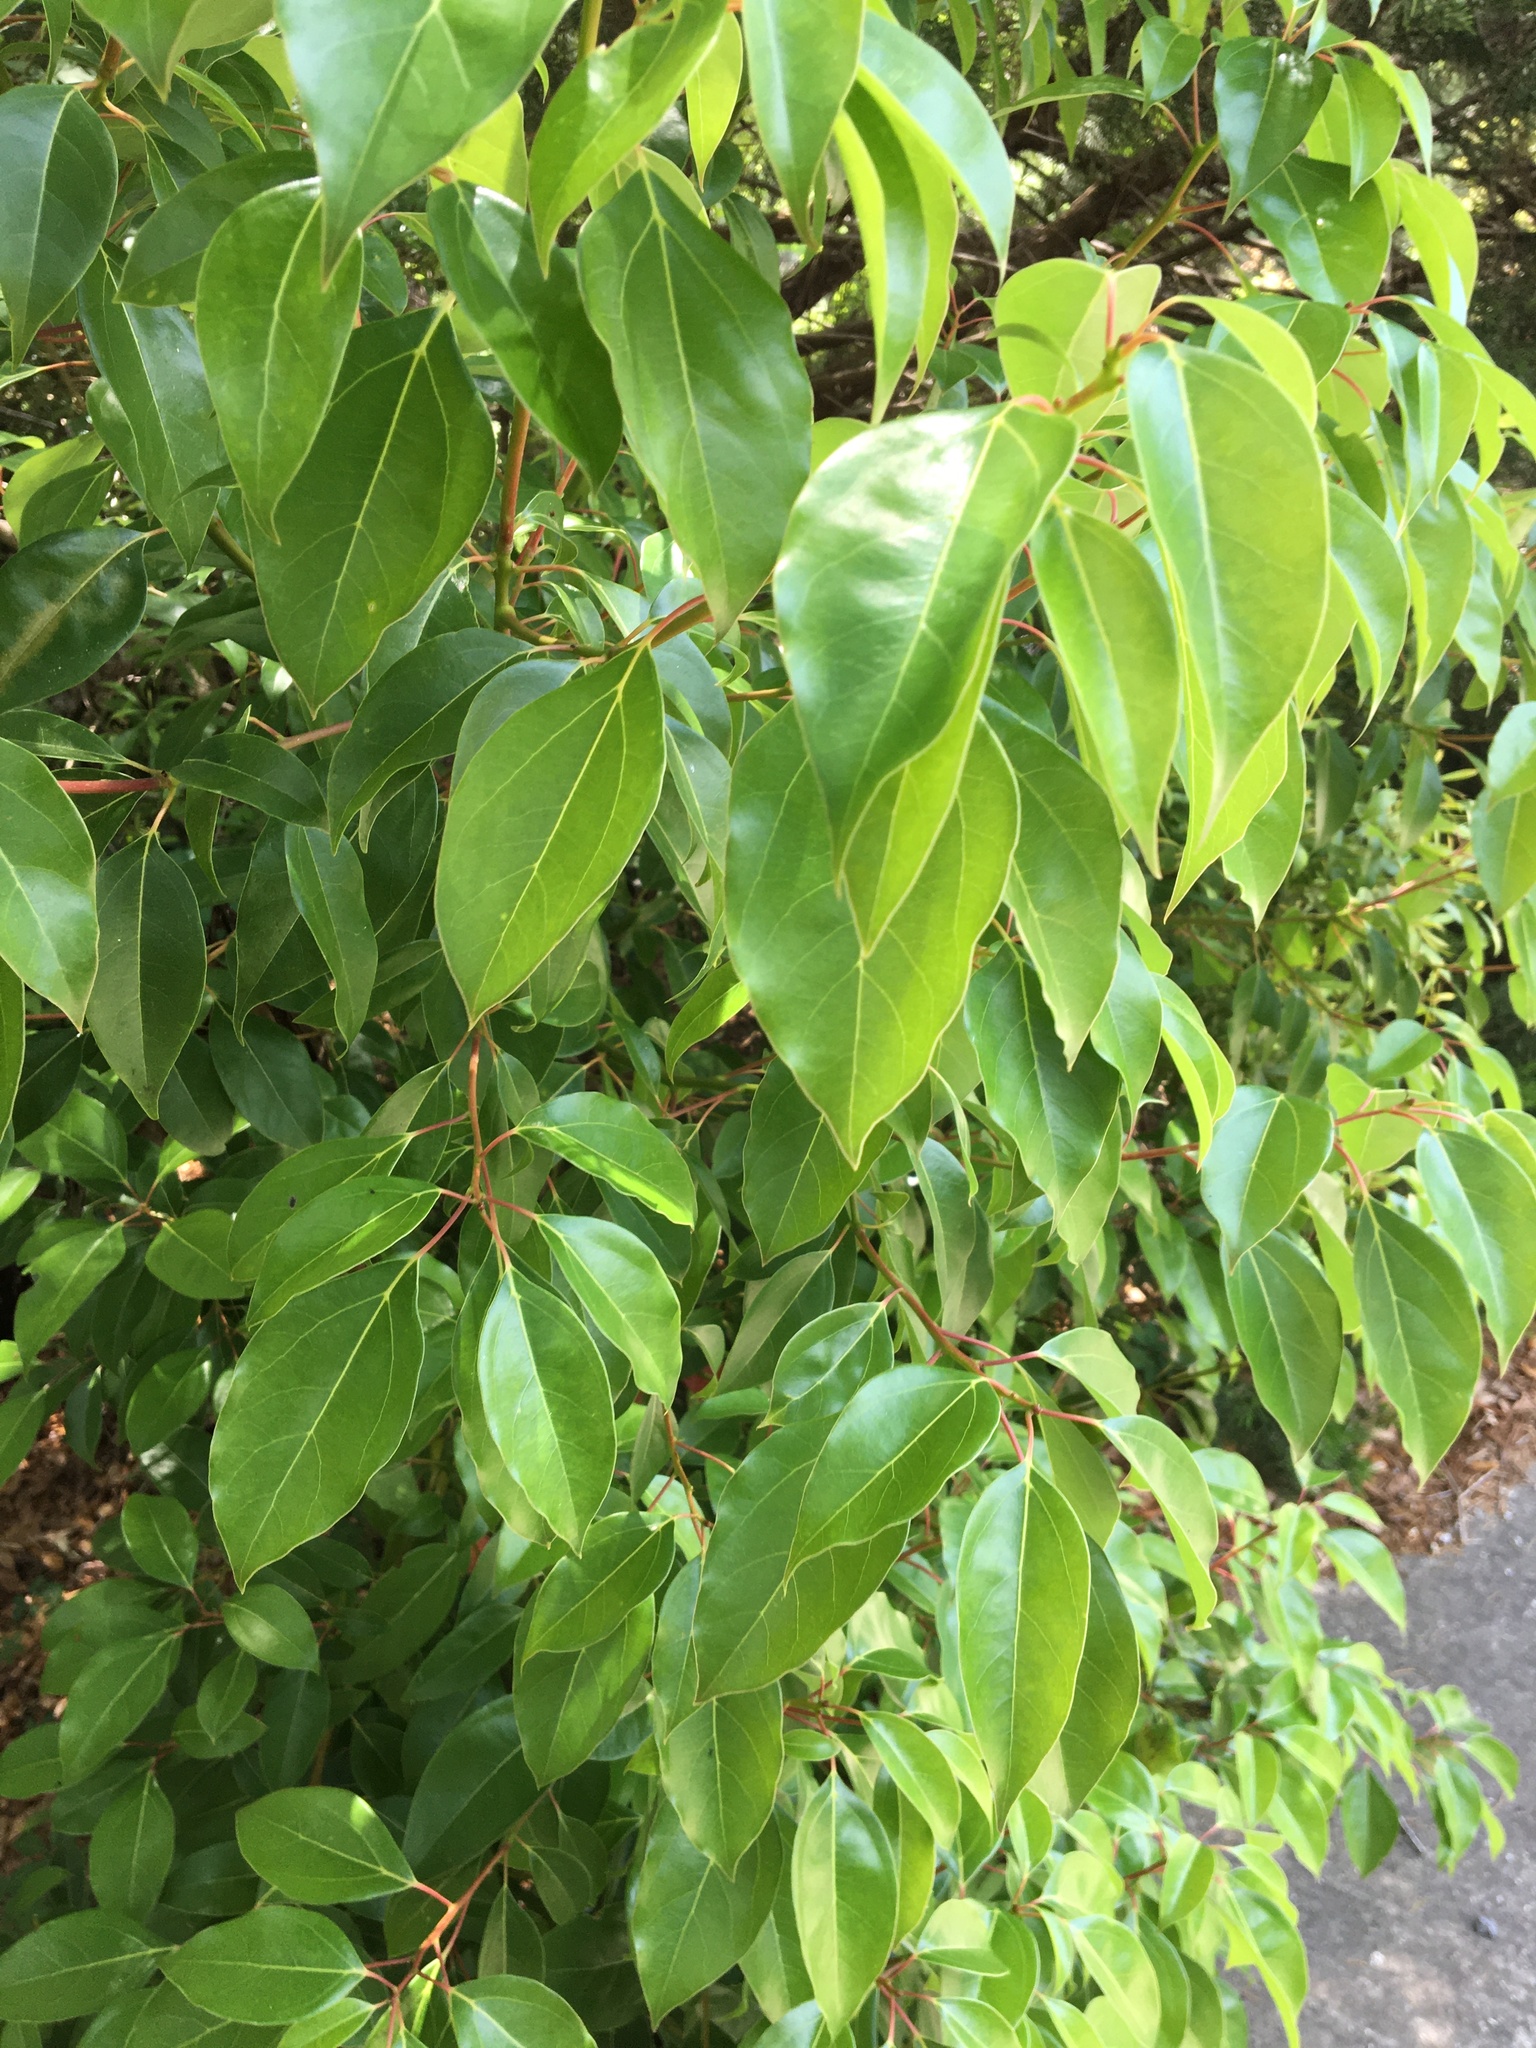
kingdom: Plantae
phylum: Tracheophyta
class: Magnoliopsida
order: Laurales
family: Lauraceae
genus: Cinnamomum
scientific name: Cinnamomum camphora
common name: Camphortree
